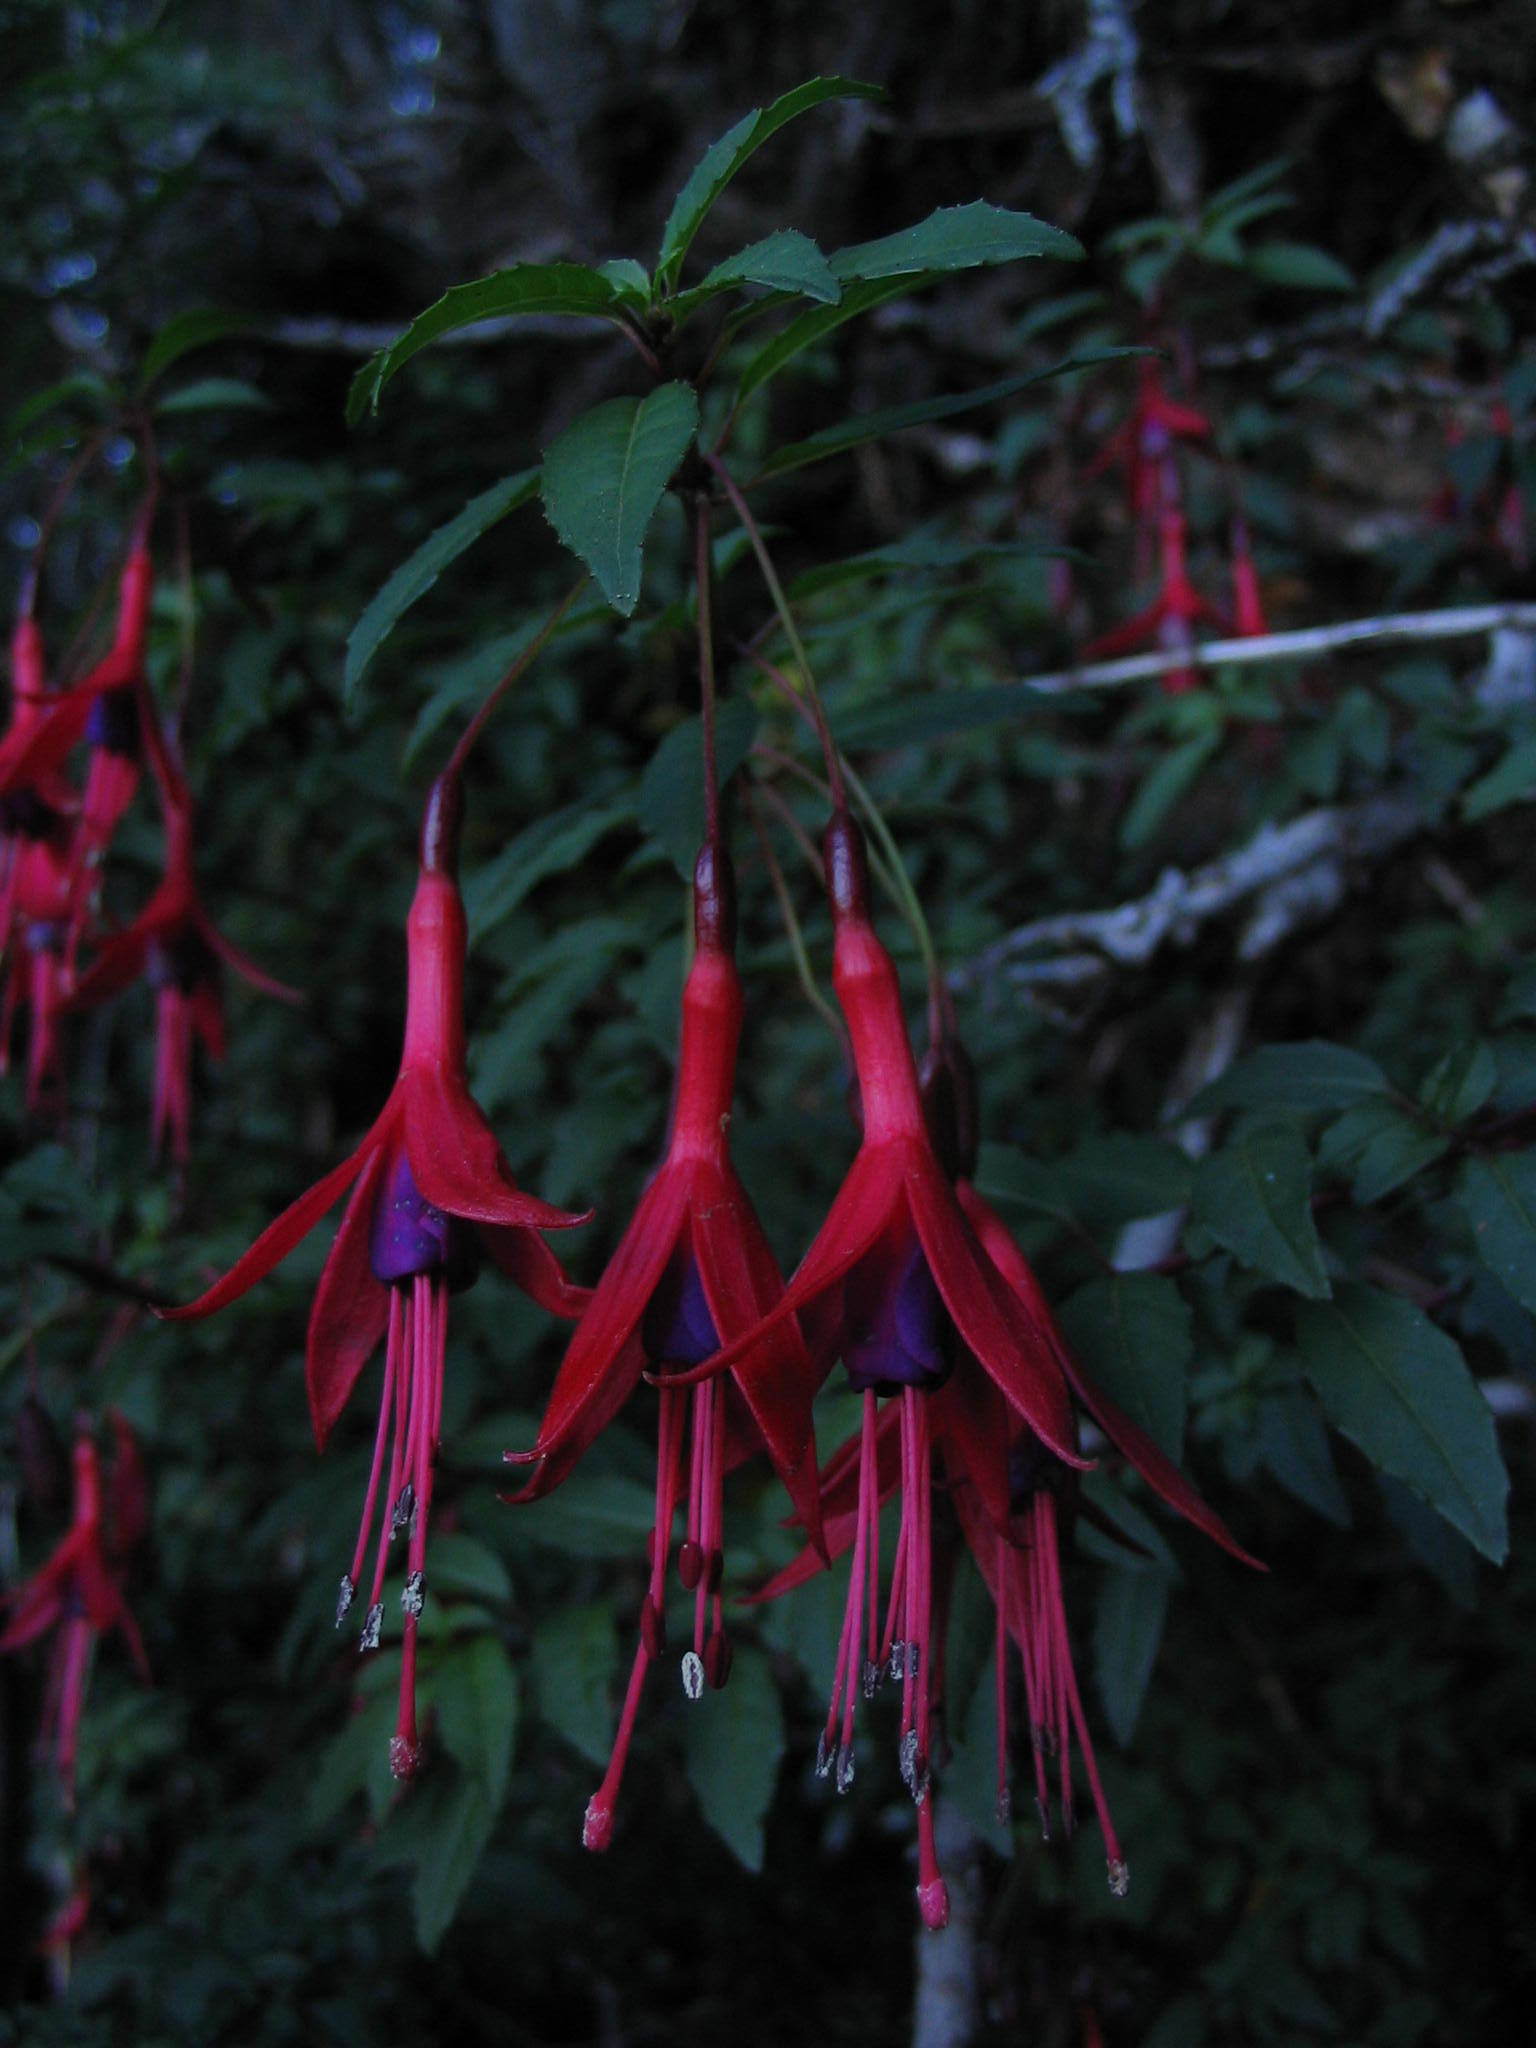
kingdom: Plantae
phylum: Tracheophyta
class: Magnoliopsida
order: Myrtales
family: Onagraceae
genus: Fuchsia
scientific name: Fuchsia magellanica
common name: Hardy fuchsia
